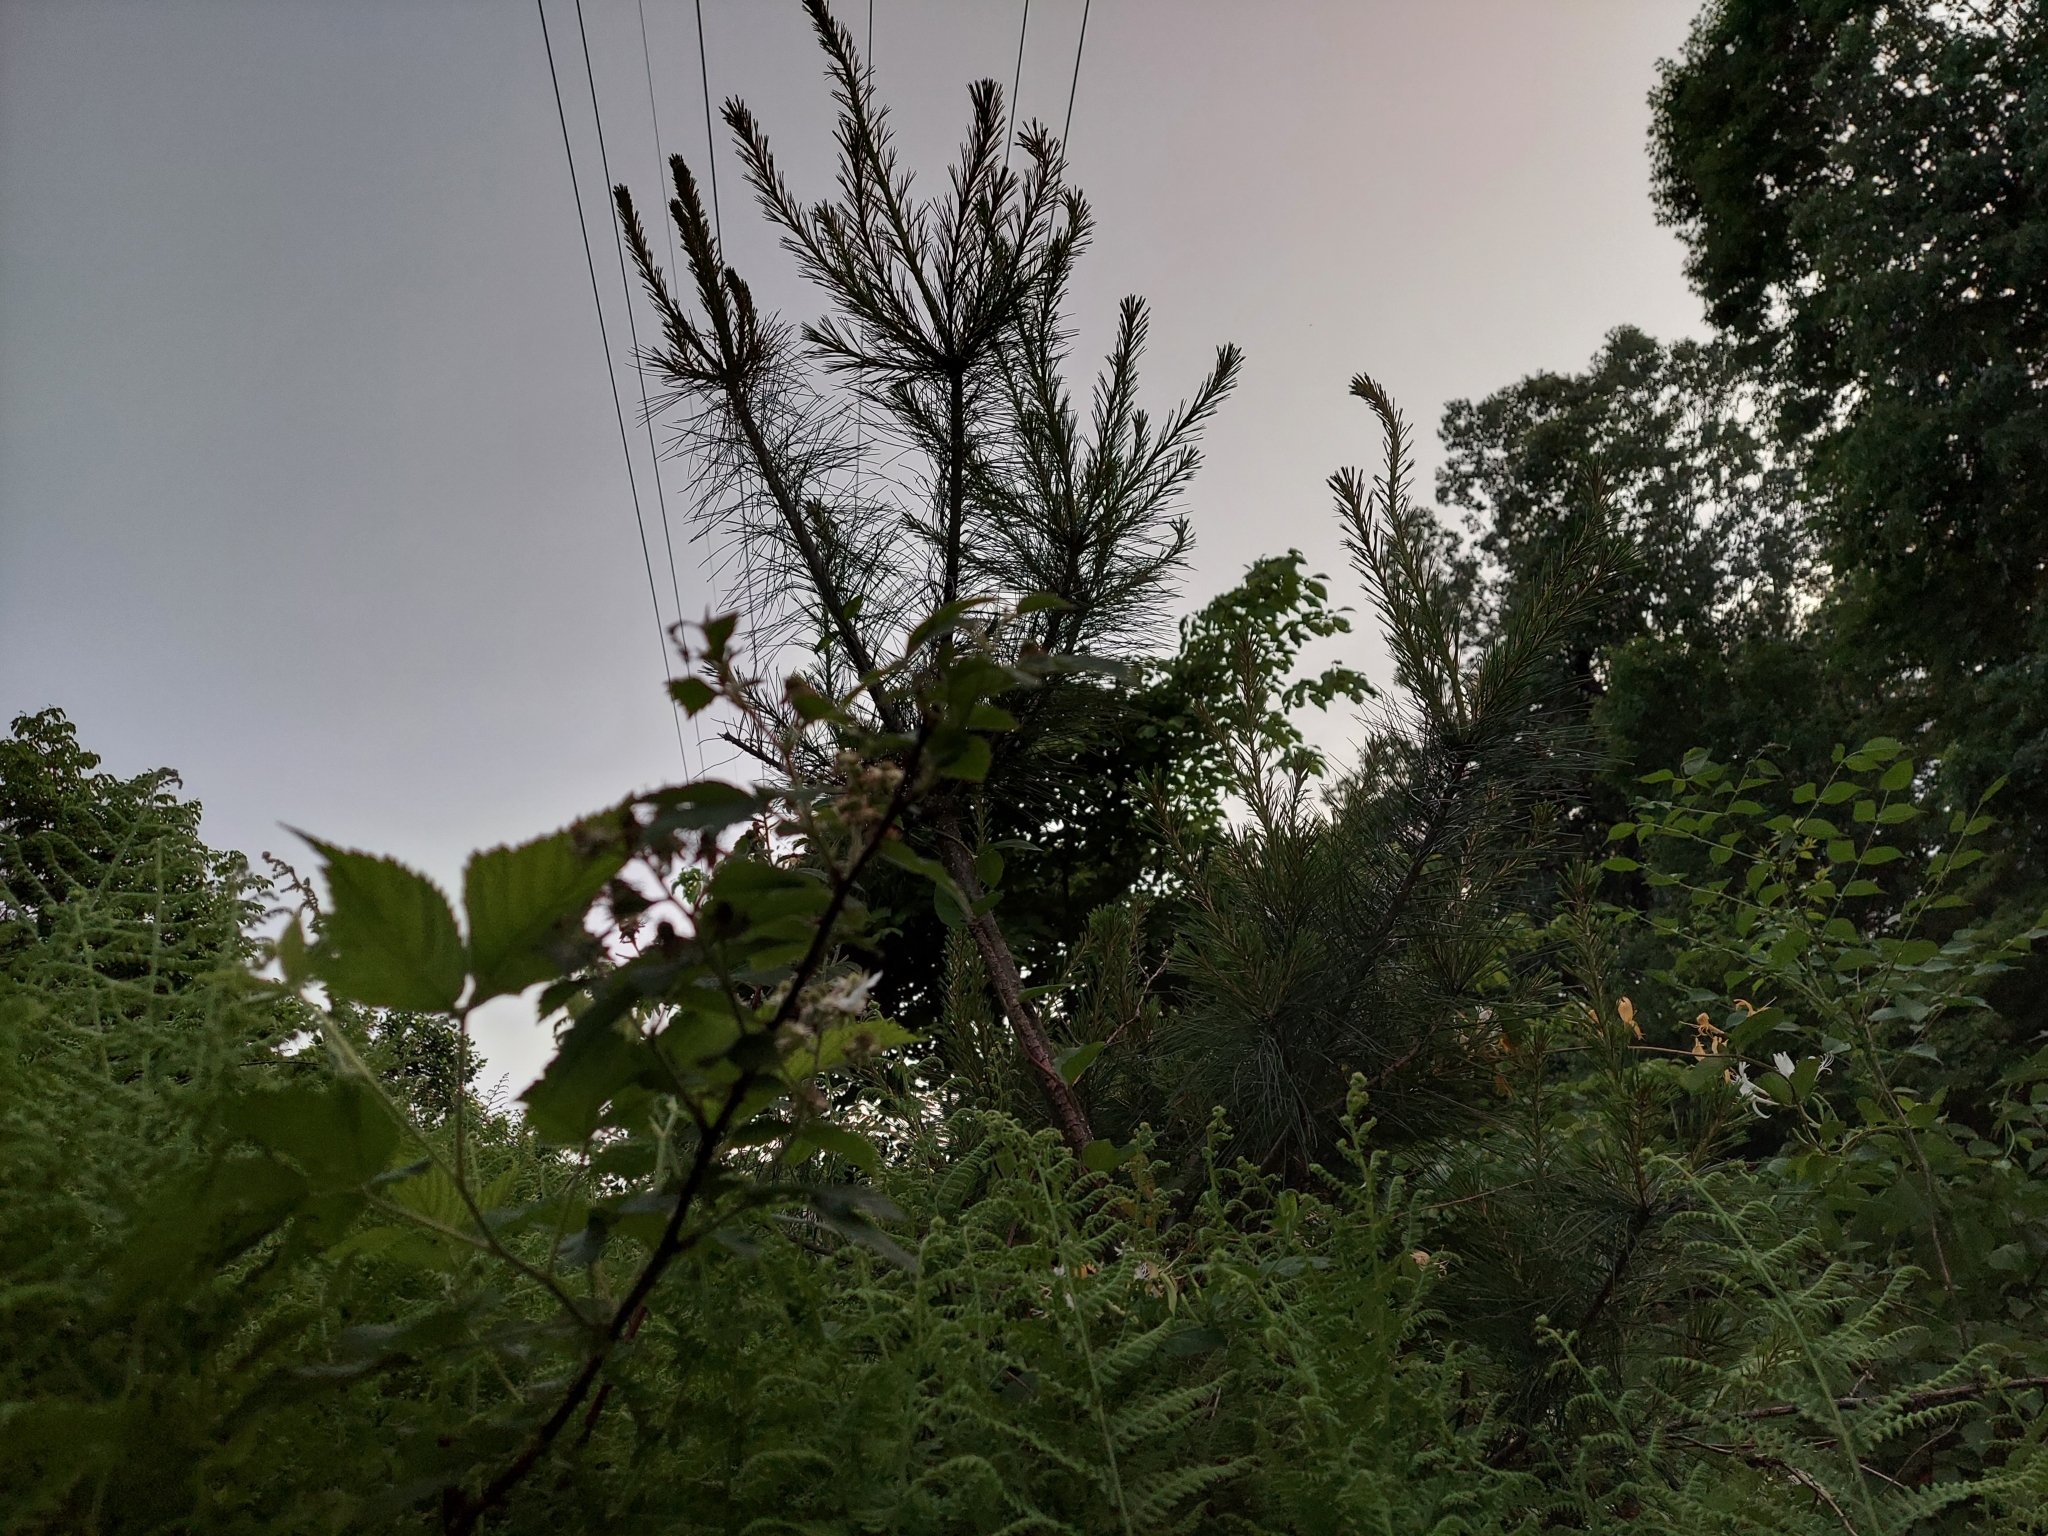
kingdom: Plantae
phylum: Tracheophyta
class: Pinopsida
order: Pinales
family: Pinaceae
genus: Pinus
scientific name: Pinus strobus
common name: Weymouth pine
